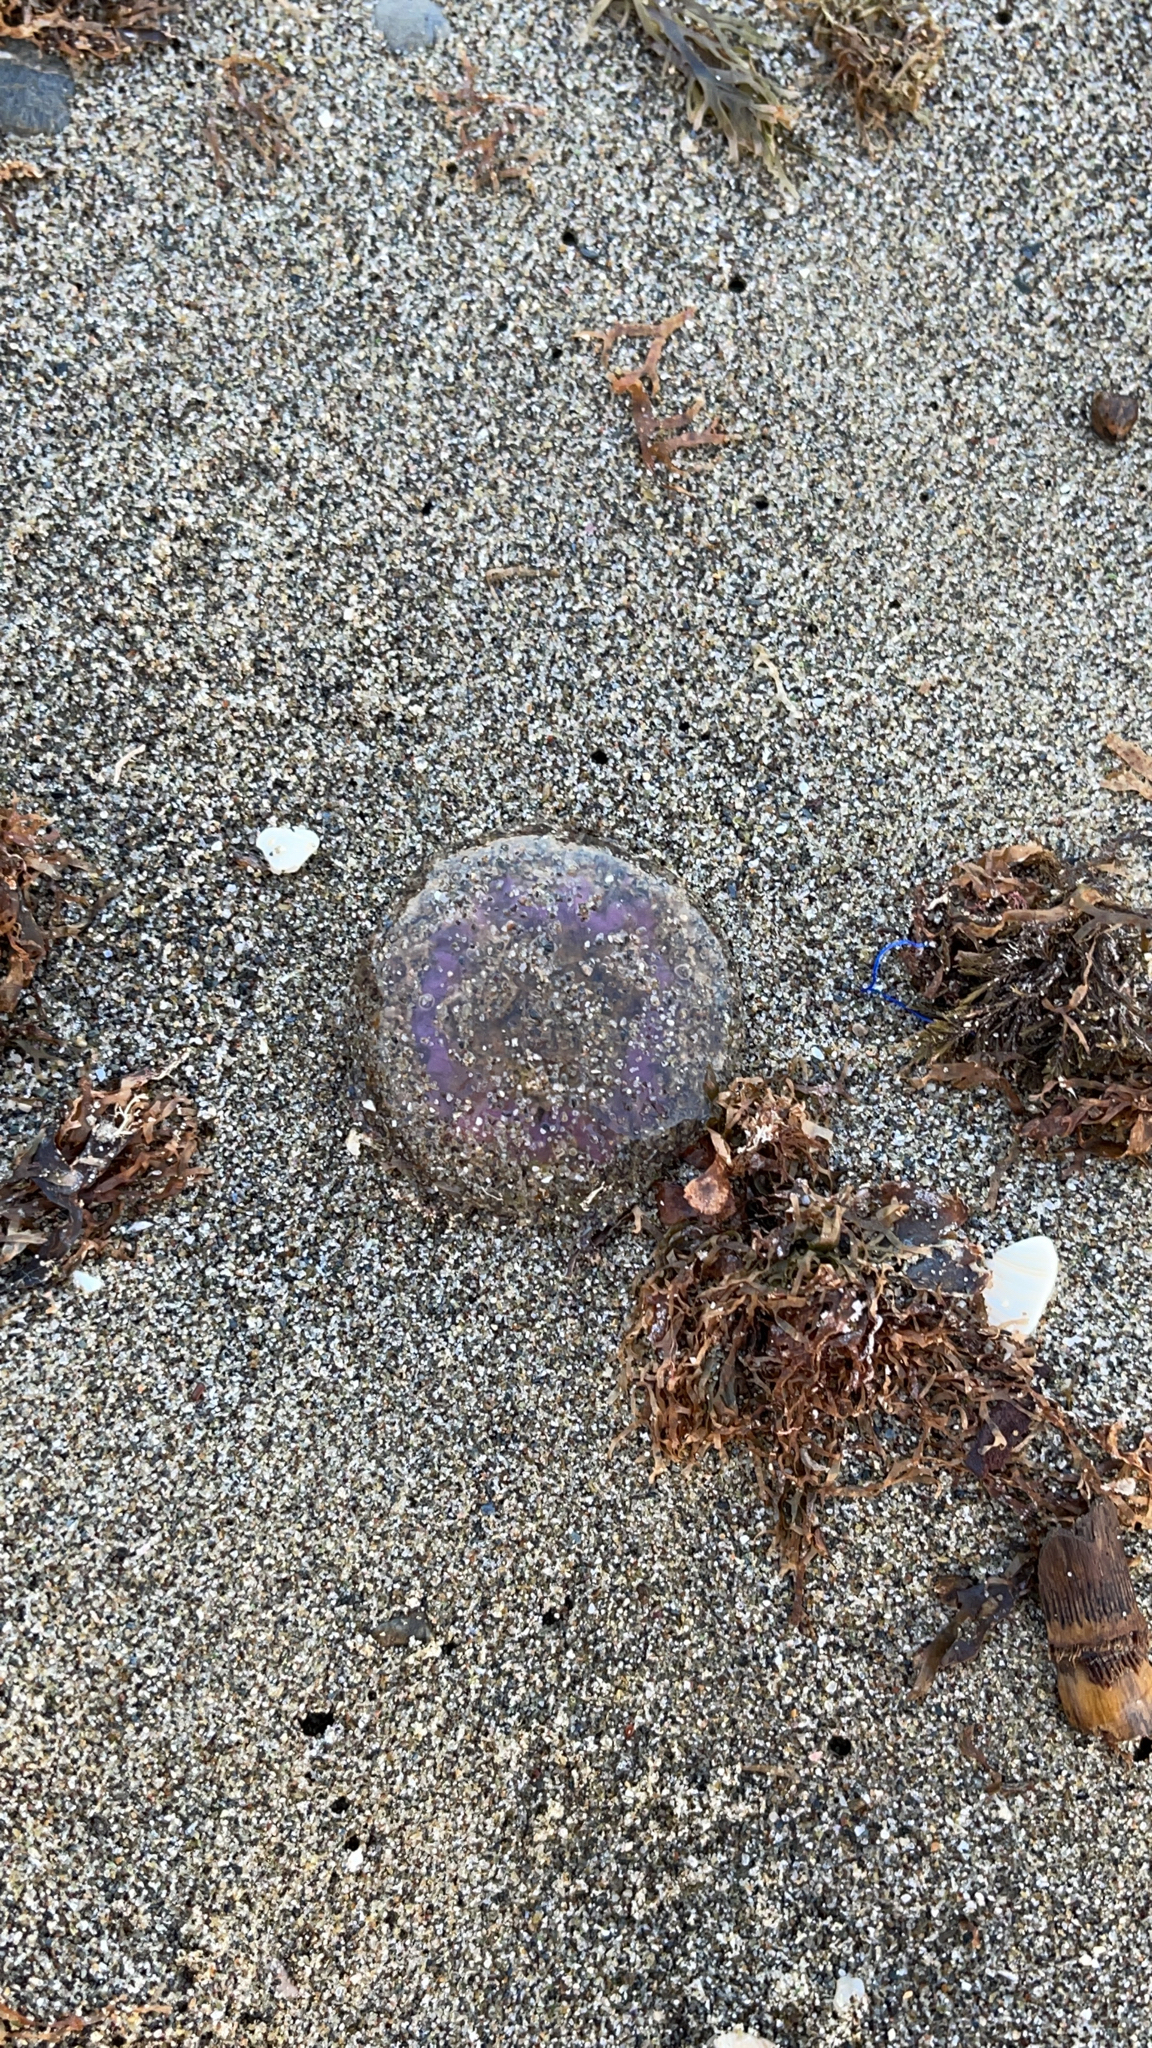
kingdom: Animalia
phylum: Cnidaria
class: Scyphozoa
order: Semaeostomeae
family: Pelagiidae
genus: Pelagia
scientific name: Pelagia noctiluca
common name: Mauve stinger
